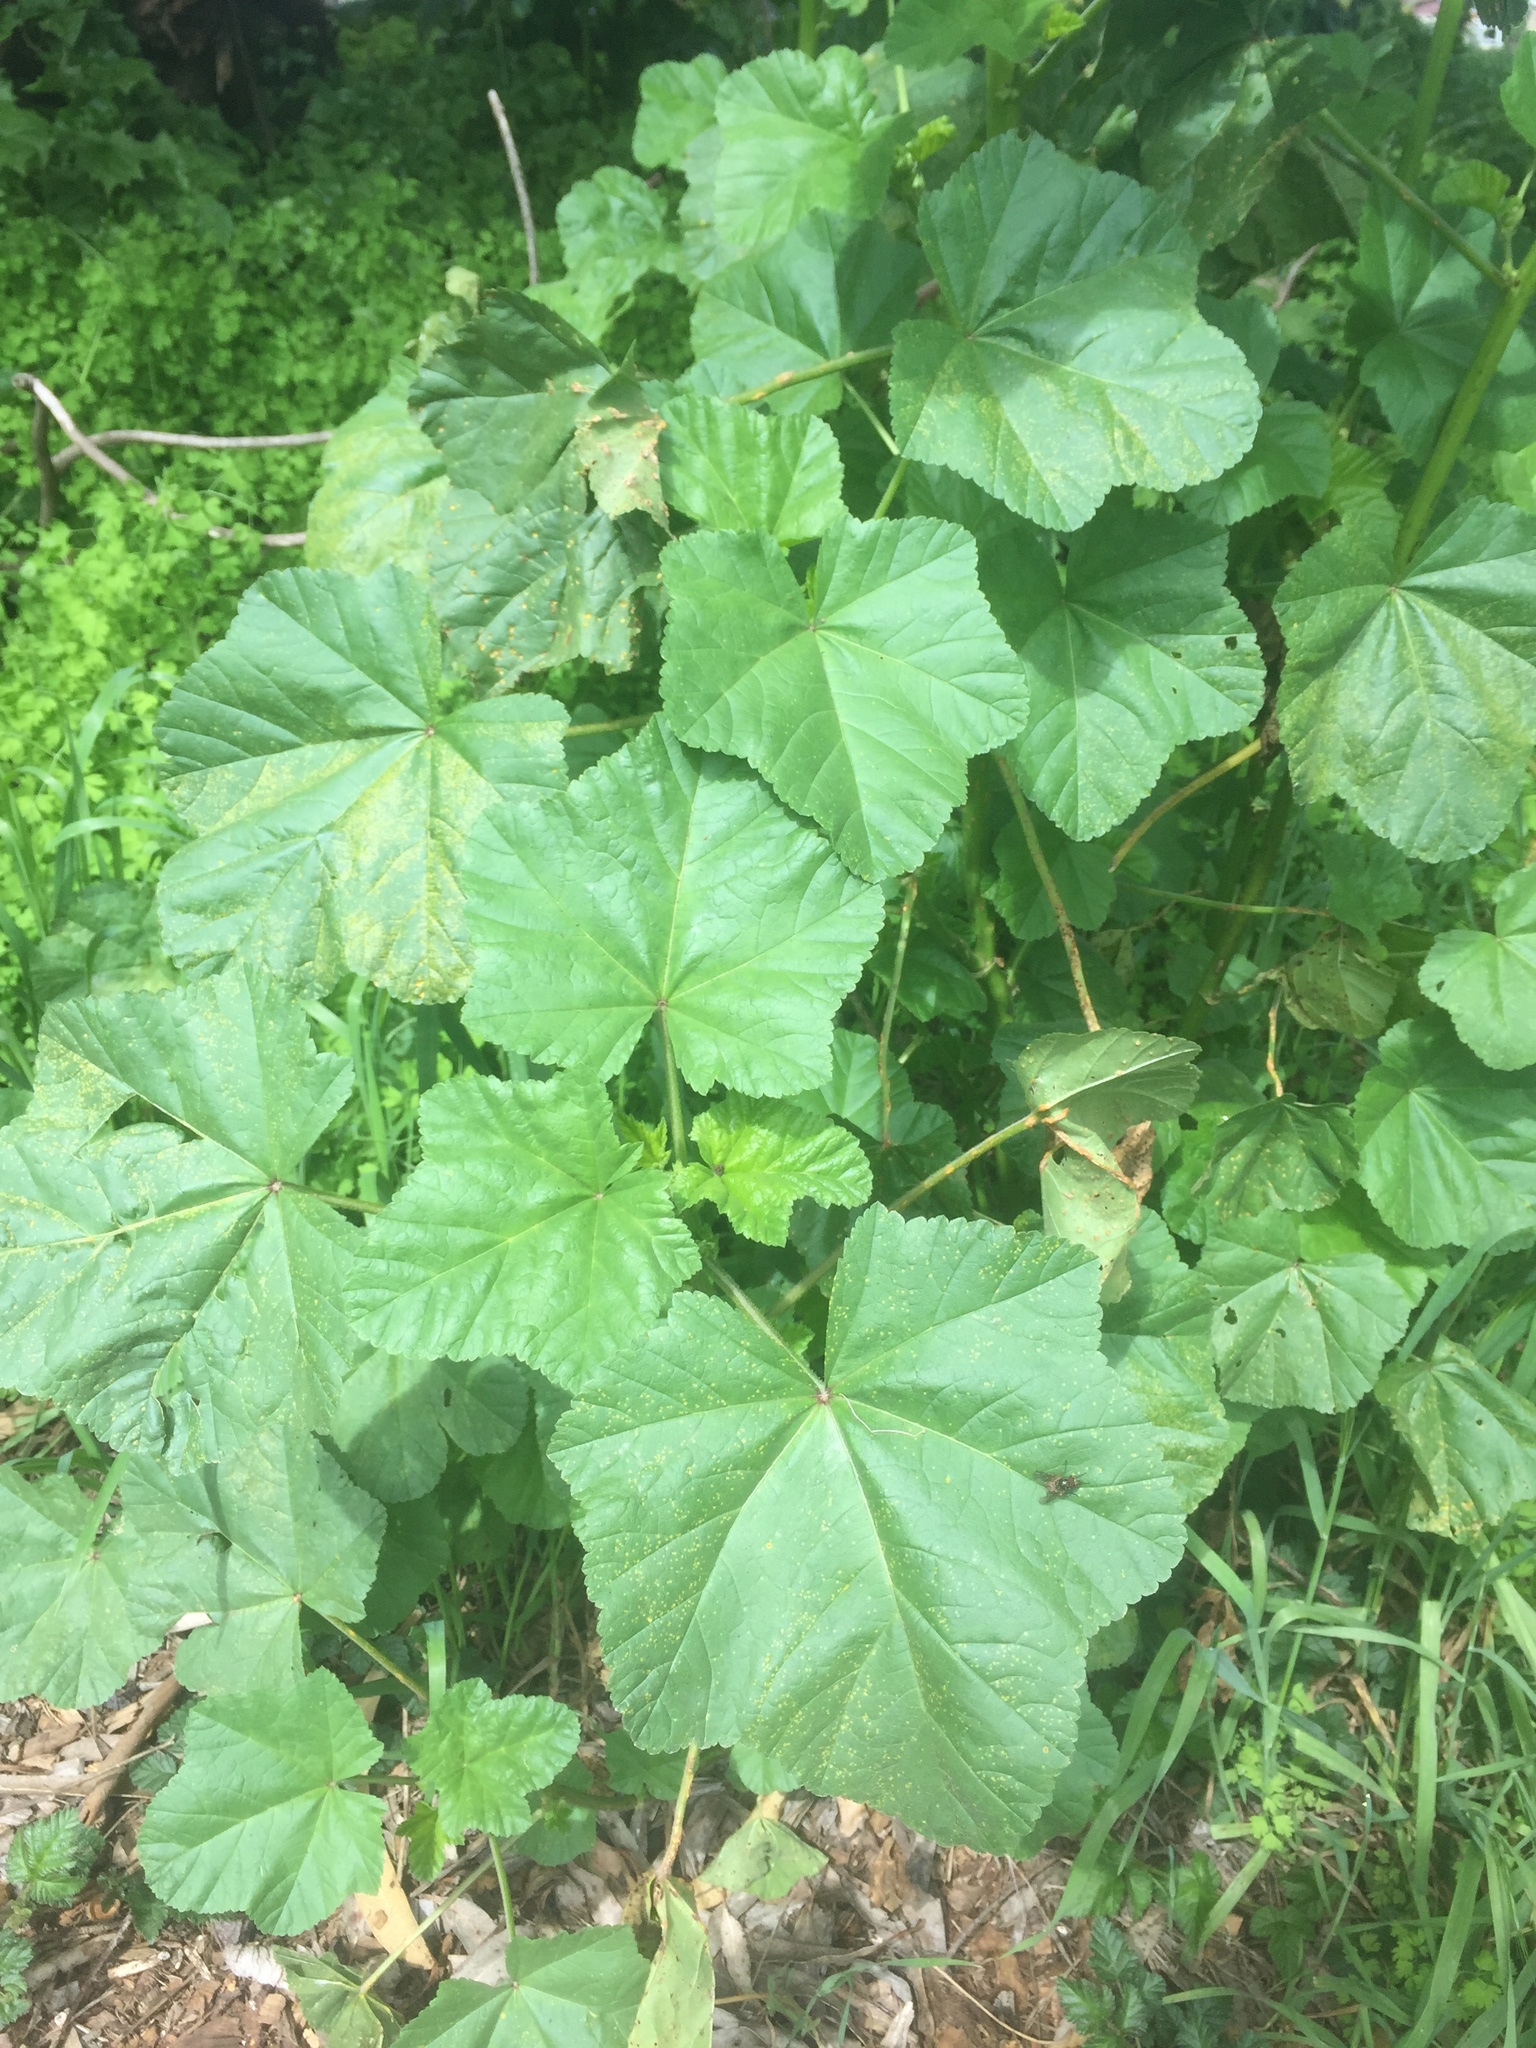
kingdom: Plantae
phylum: Tracheophyta
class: Magnoliopsida
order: Malvales
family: Malvaceae
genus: Malva
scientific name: Malva
